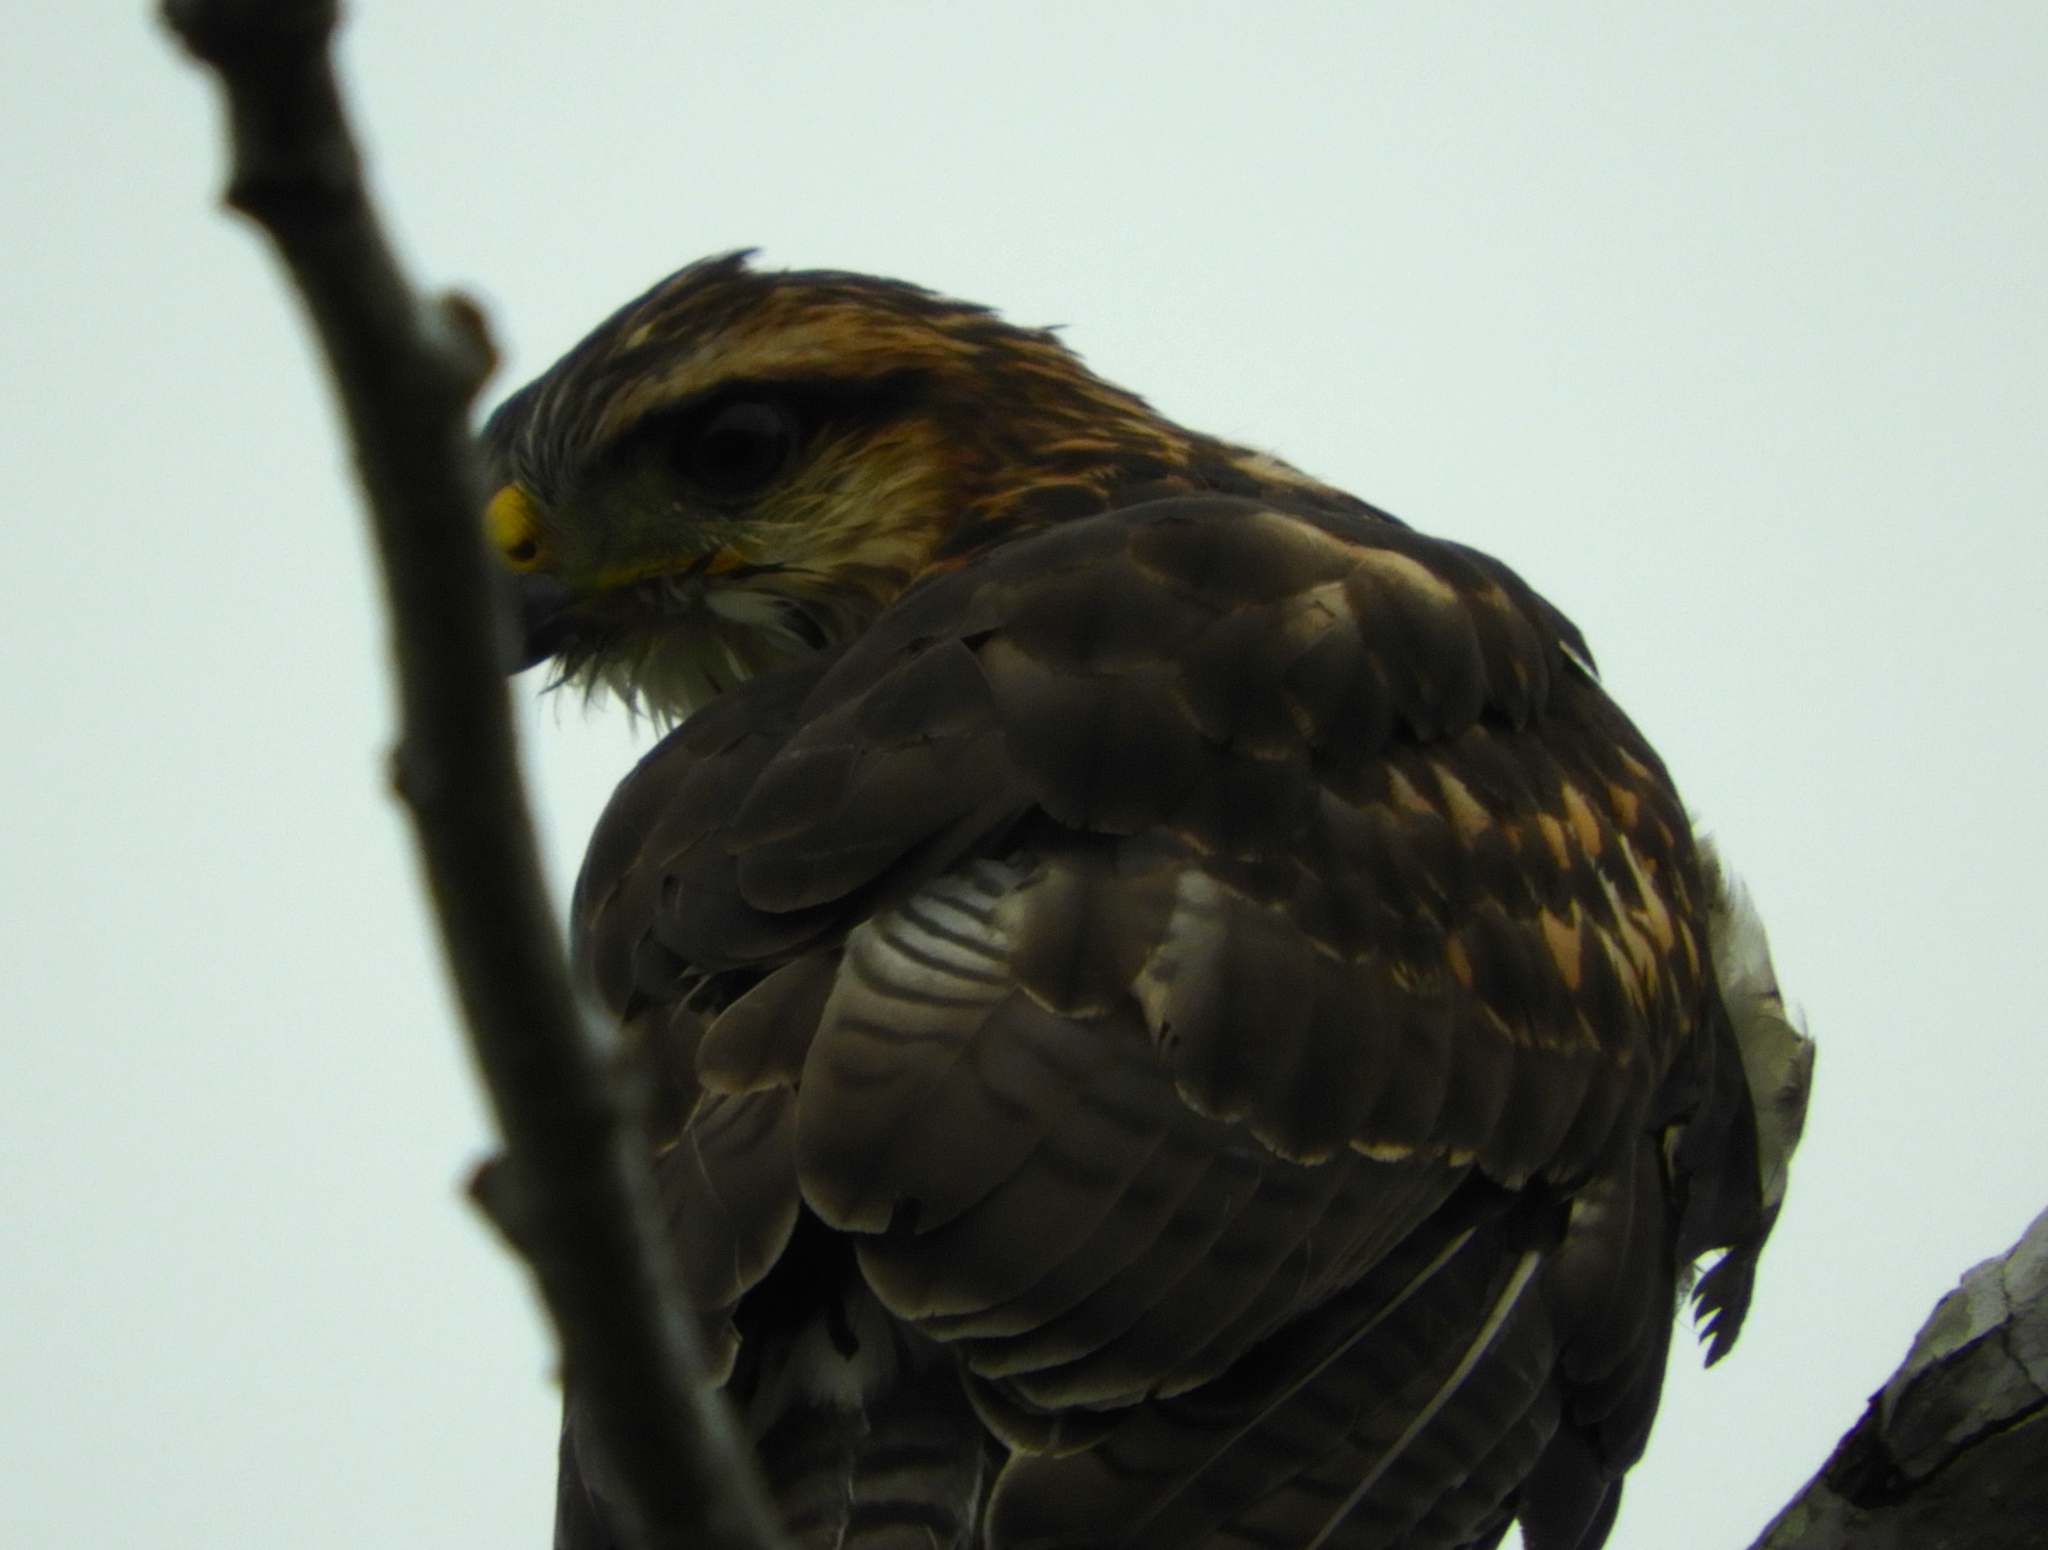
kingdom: Animalia
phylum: Chordata
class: Aves
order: Accipitriformes
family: Accipitridae
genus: Buteo
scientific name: Buteo nitidus
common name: Grey-lined hawk
